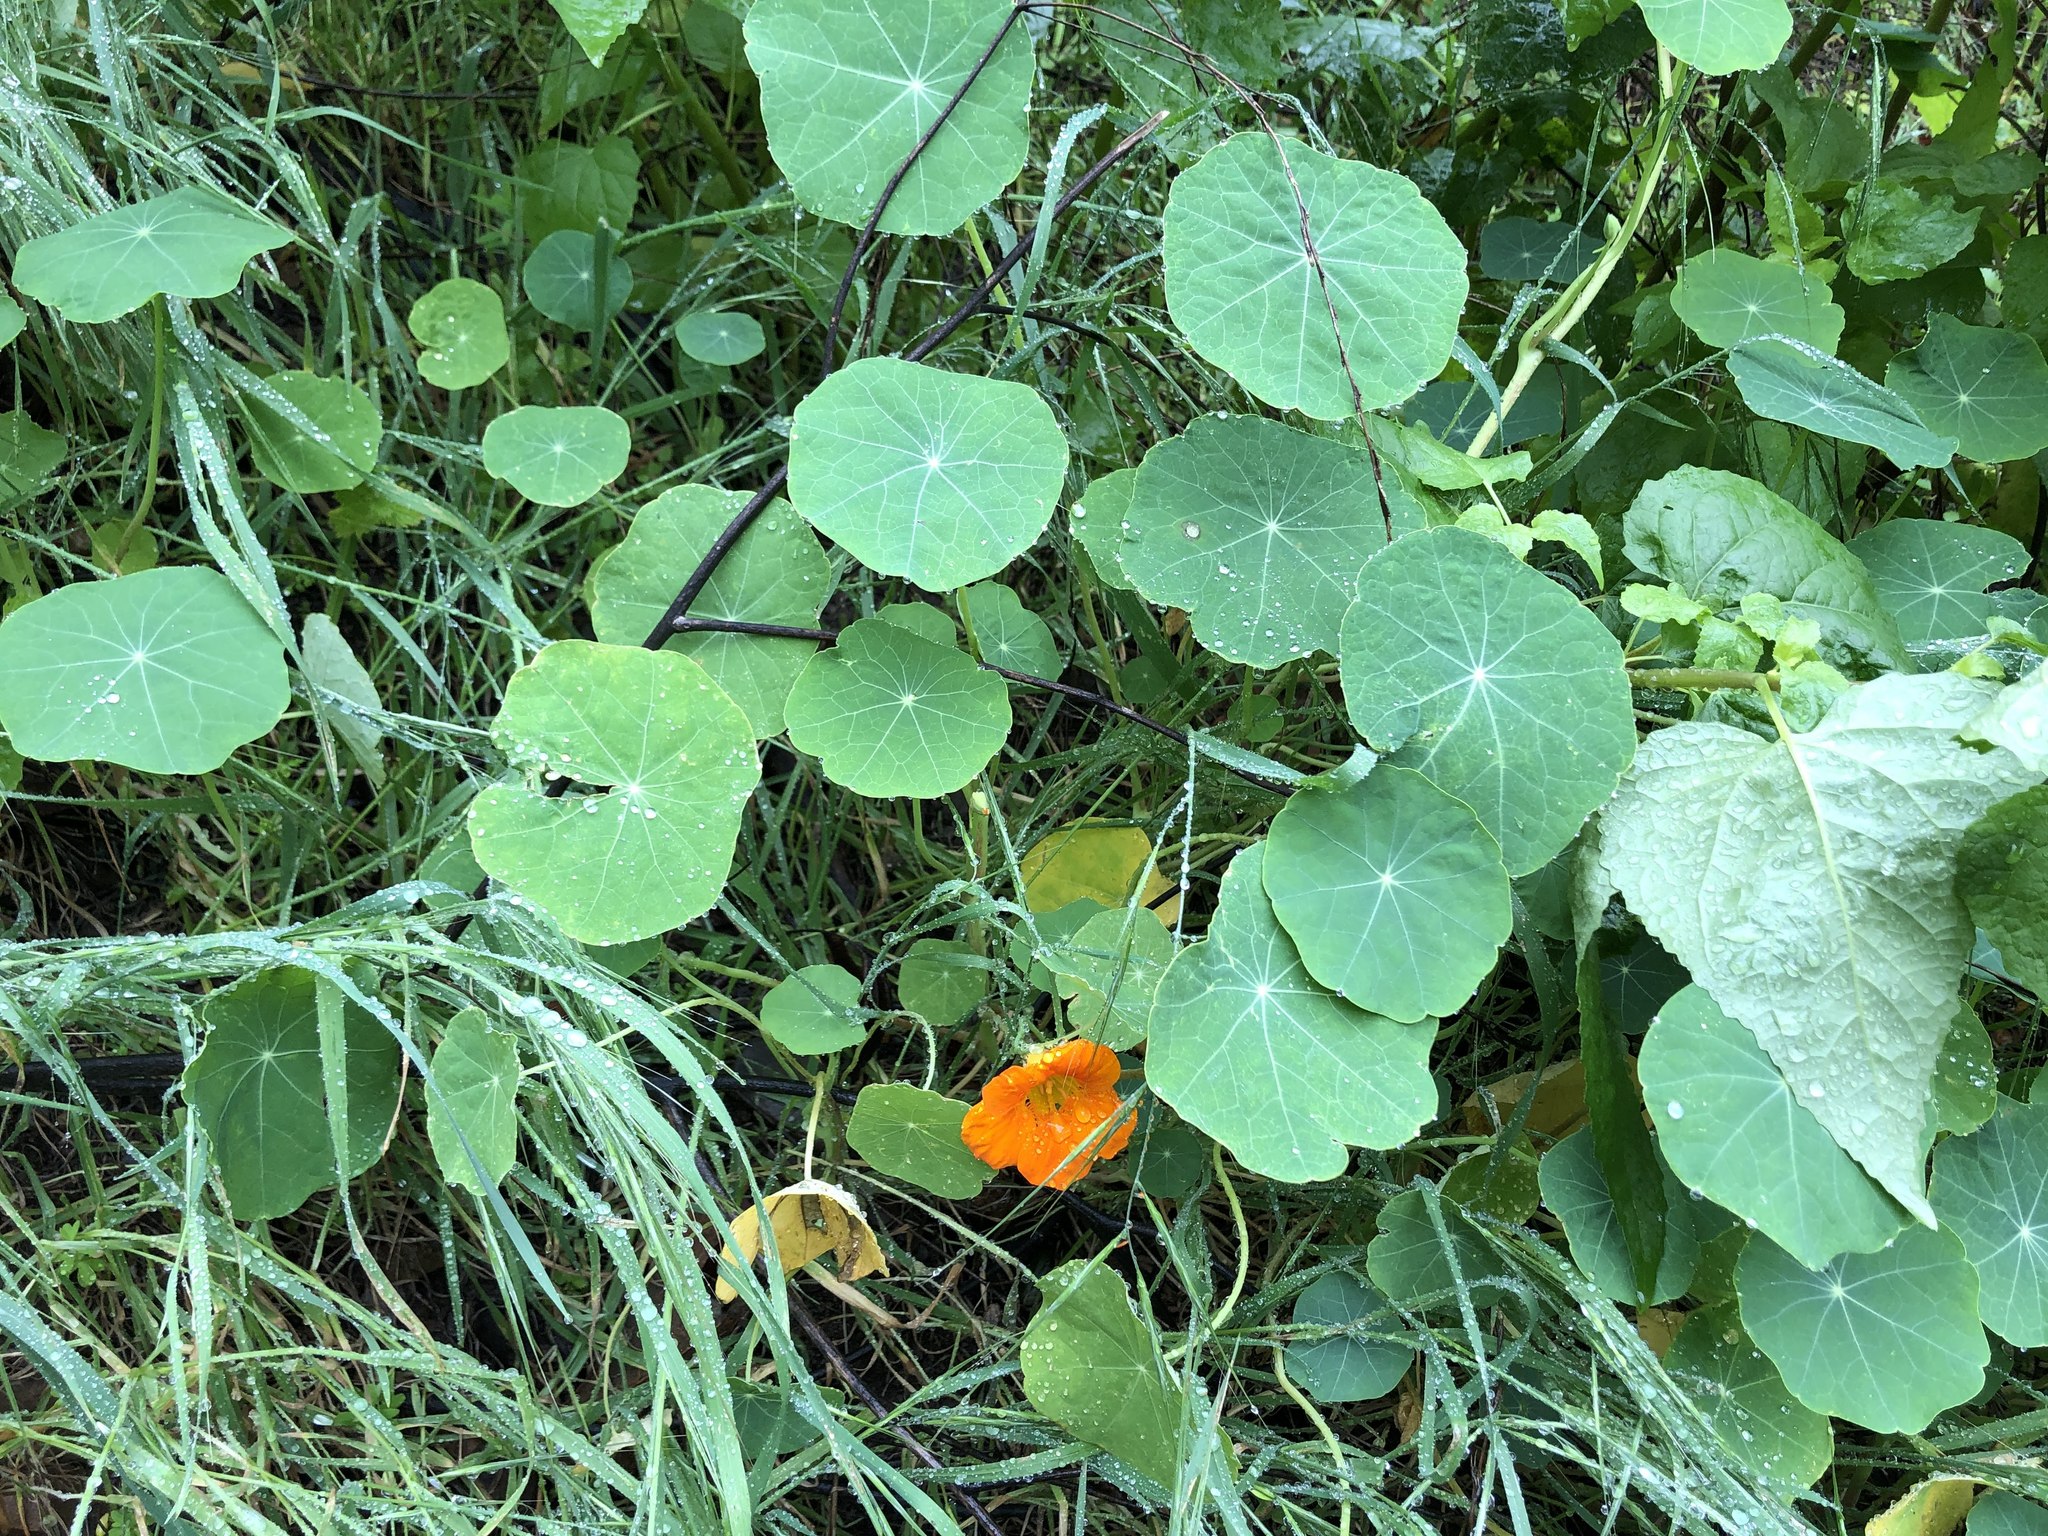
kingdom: Plantae
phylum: Tracheophyta
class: Magnoliopsida
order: Brassicales
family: Tropaeolaceae
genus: Tropaeolum
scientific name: Tropaeolum majus
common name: Nasturtium
